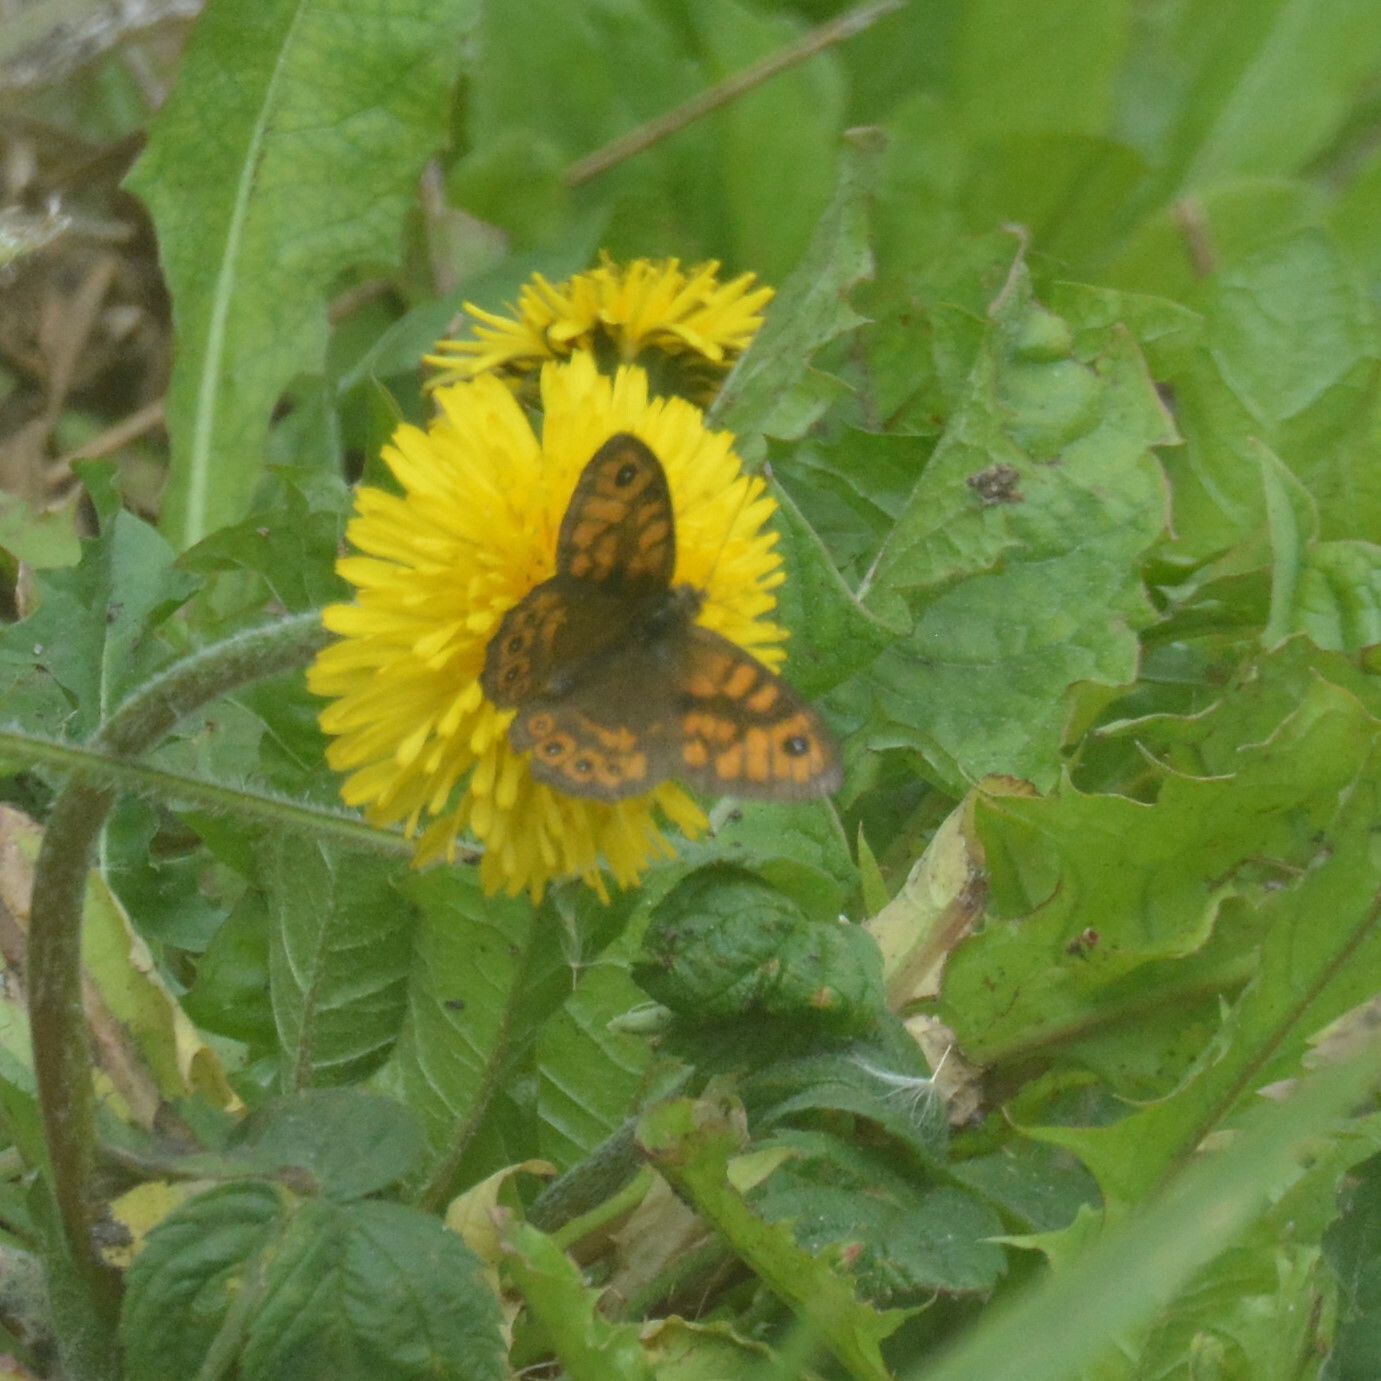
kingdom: Animalia
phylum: Arthropoda
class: Insecta
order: Lepidoptera
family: Nymphalidae
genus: Pararge
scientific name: Pararge Lasiommata megera
